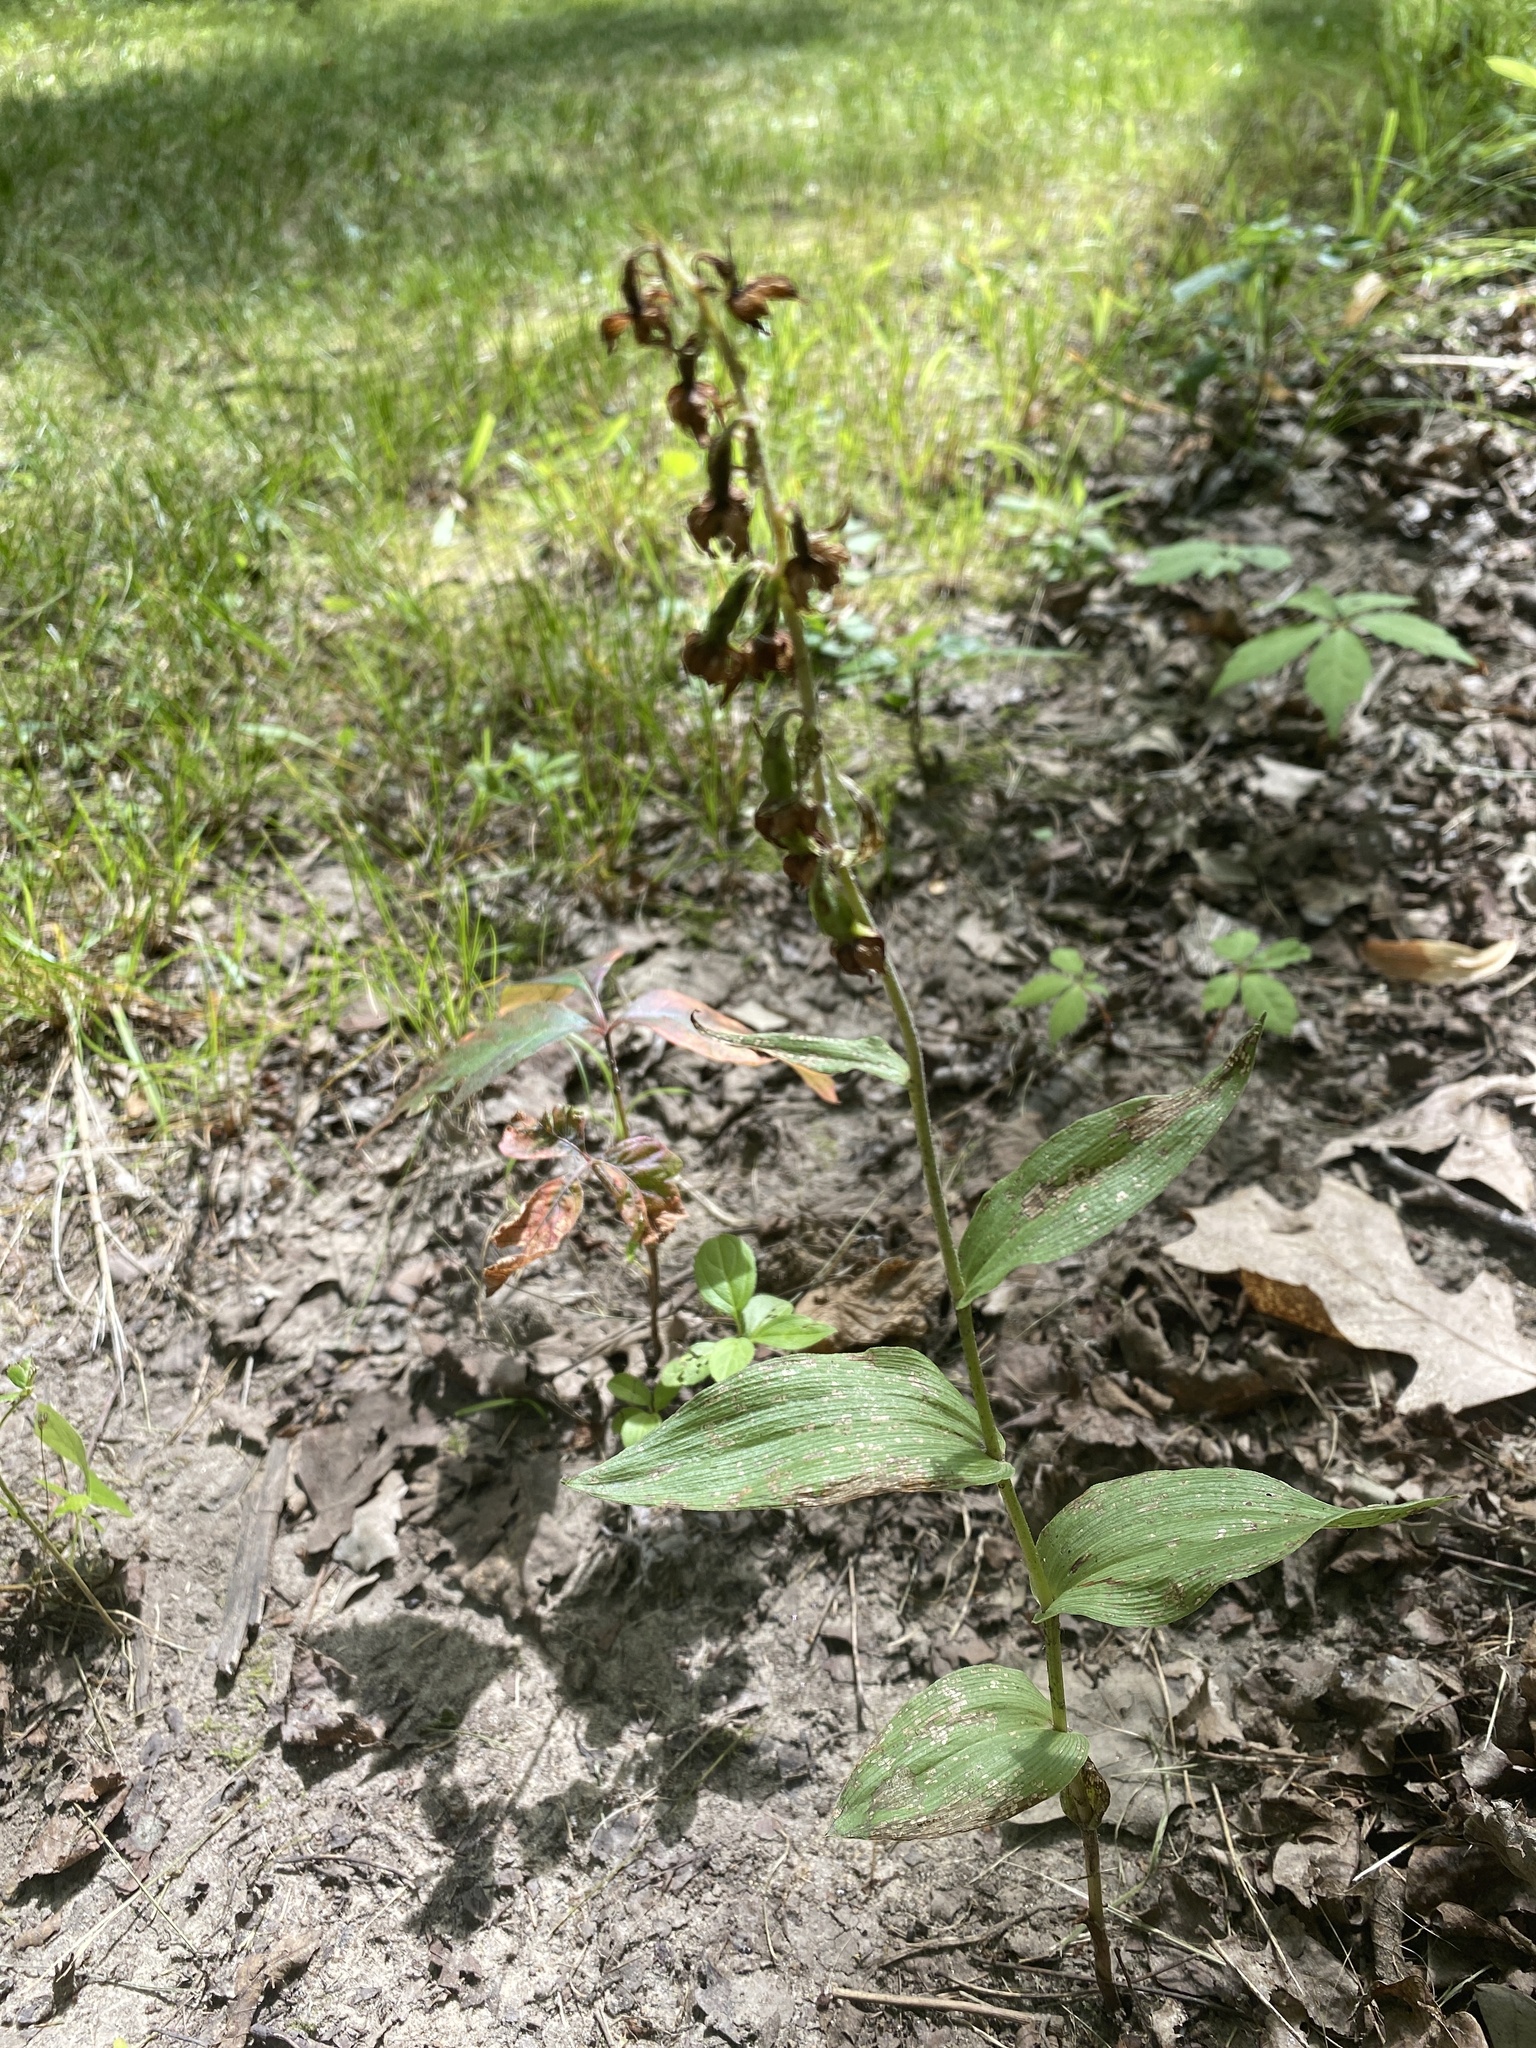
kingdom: Plantae
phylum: Tracheophyta
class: Liliopsida
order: Asparagales
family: Orchidaceae
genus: Epipactis
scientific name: Epipactis helleborine
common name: Broad-leaved helleborine
